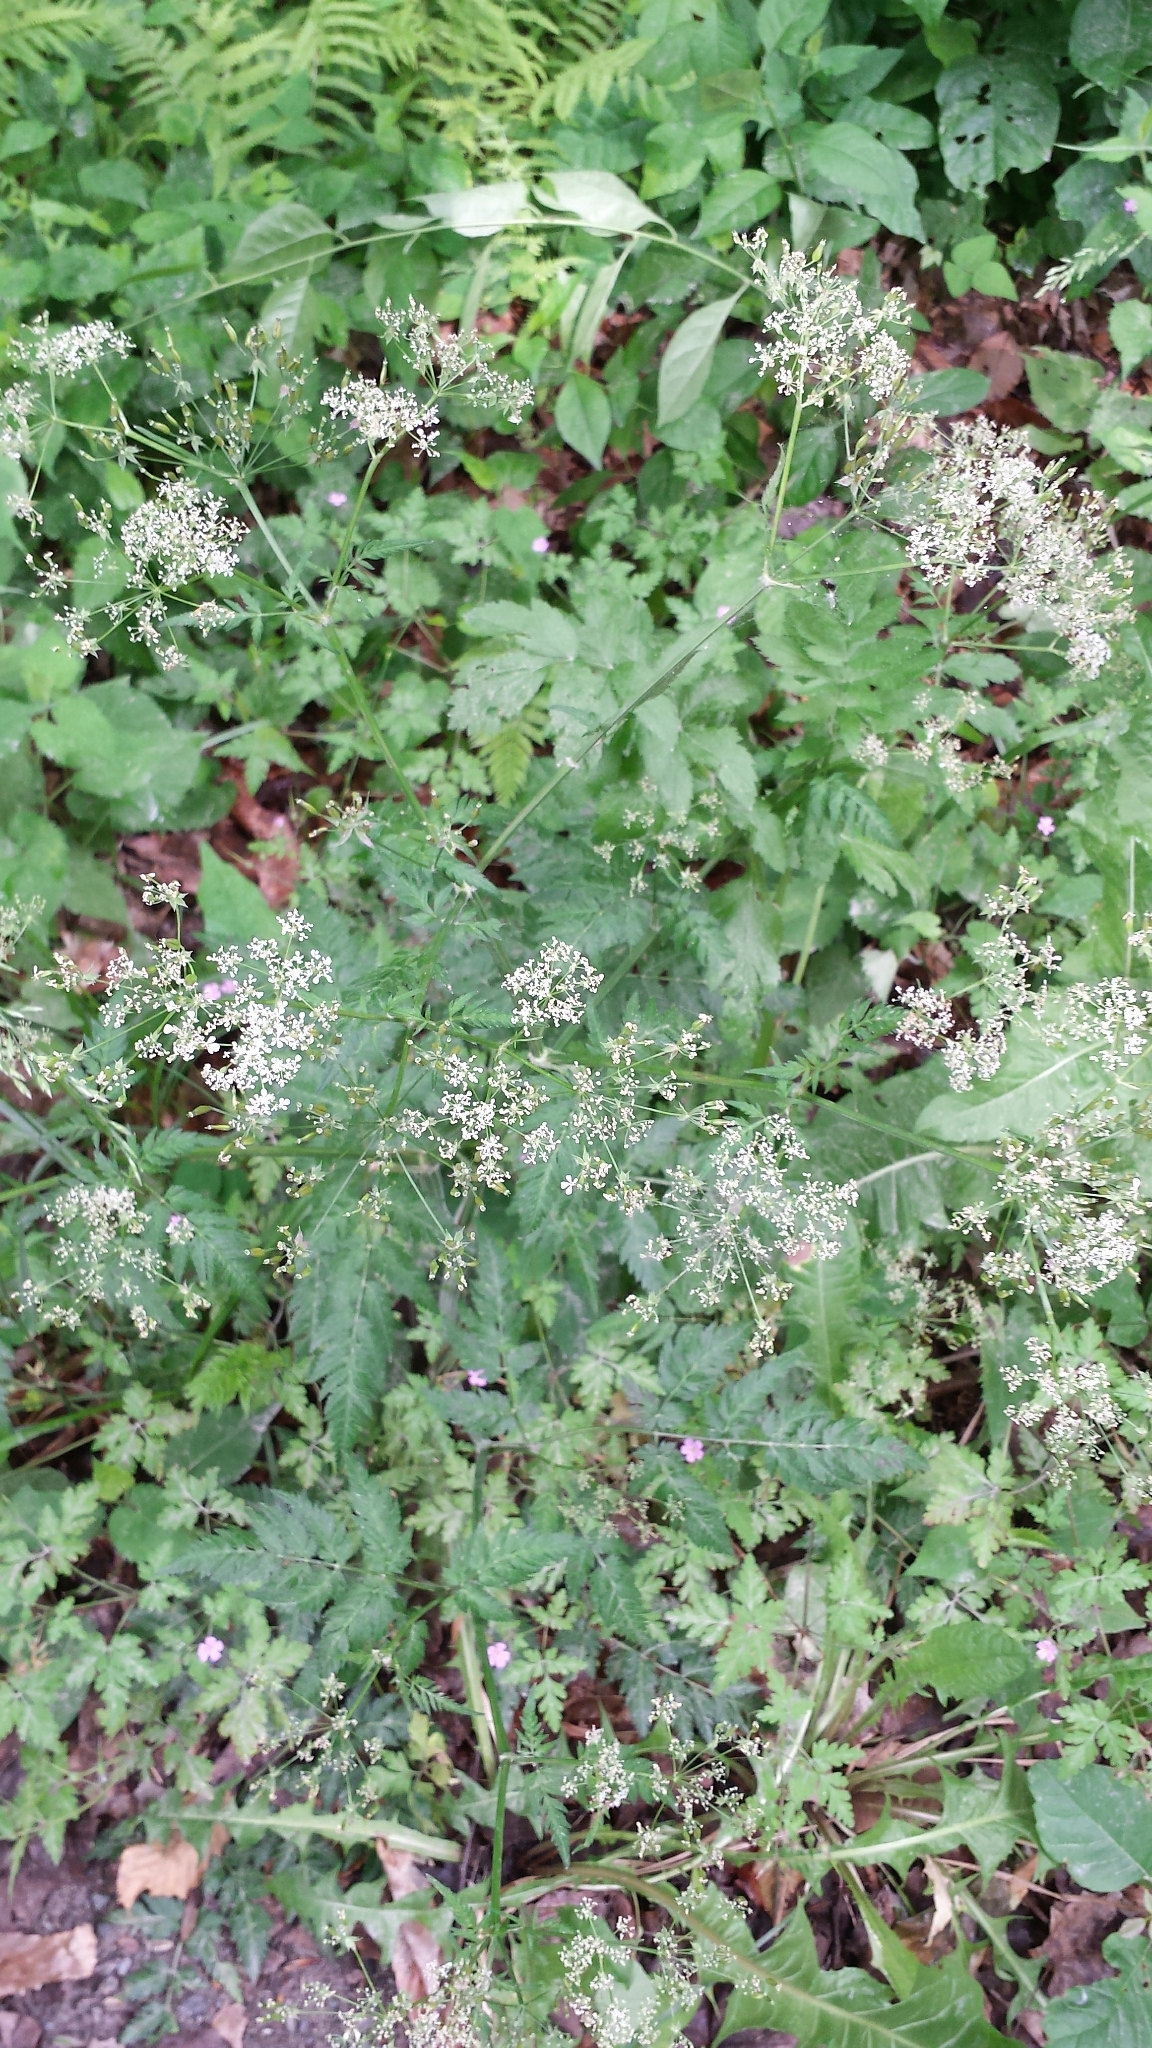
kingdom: Plantae
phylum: Tracheophyta
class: Magnoliopsida
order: Apiales
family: Apiaceae
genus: Anthriscus
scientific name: Anthriscus sylvestris
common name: Cow parsley
